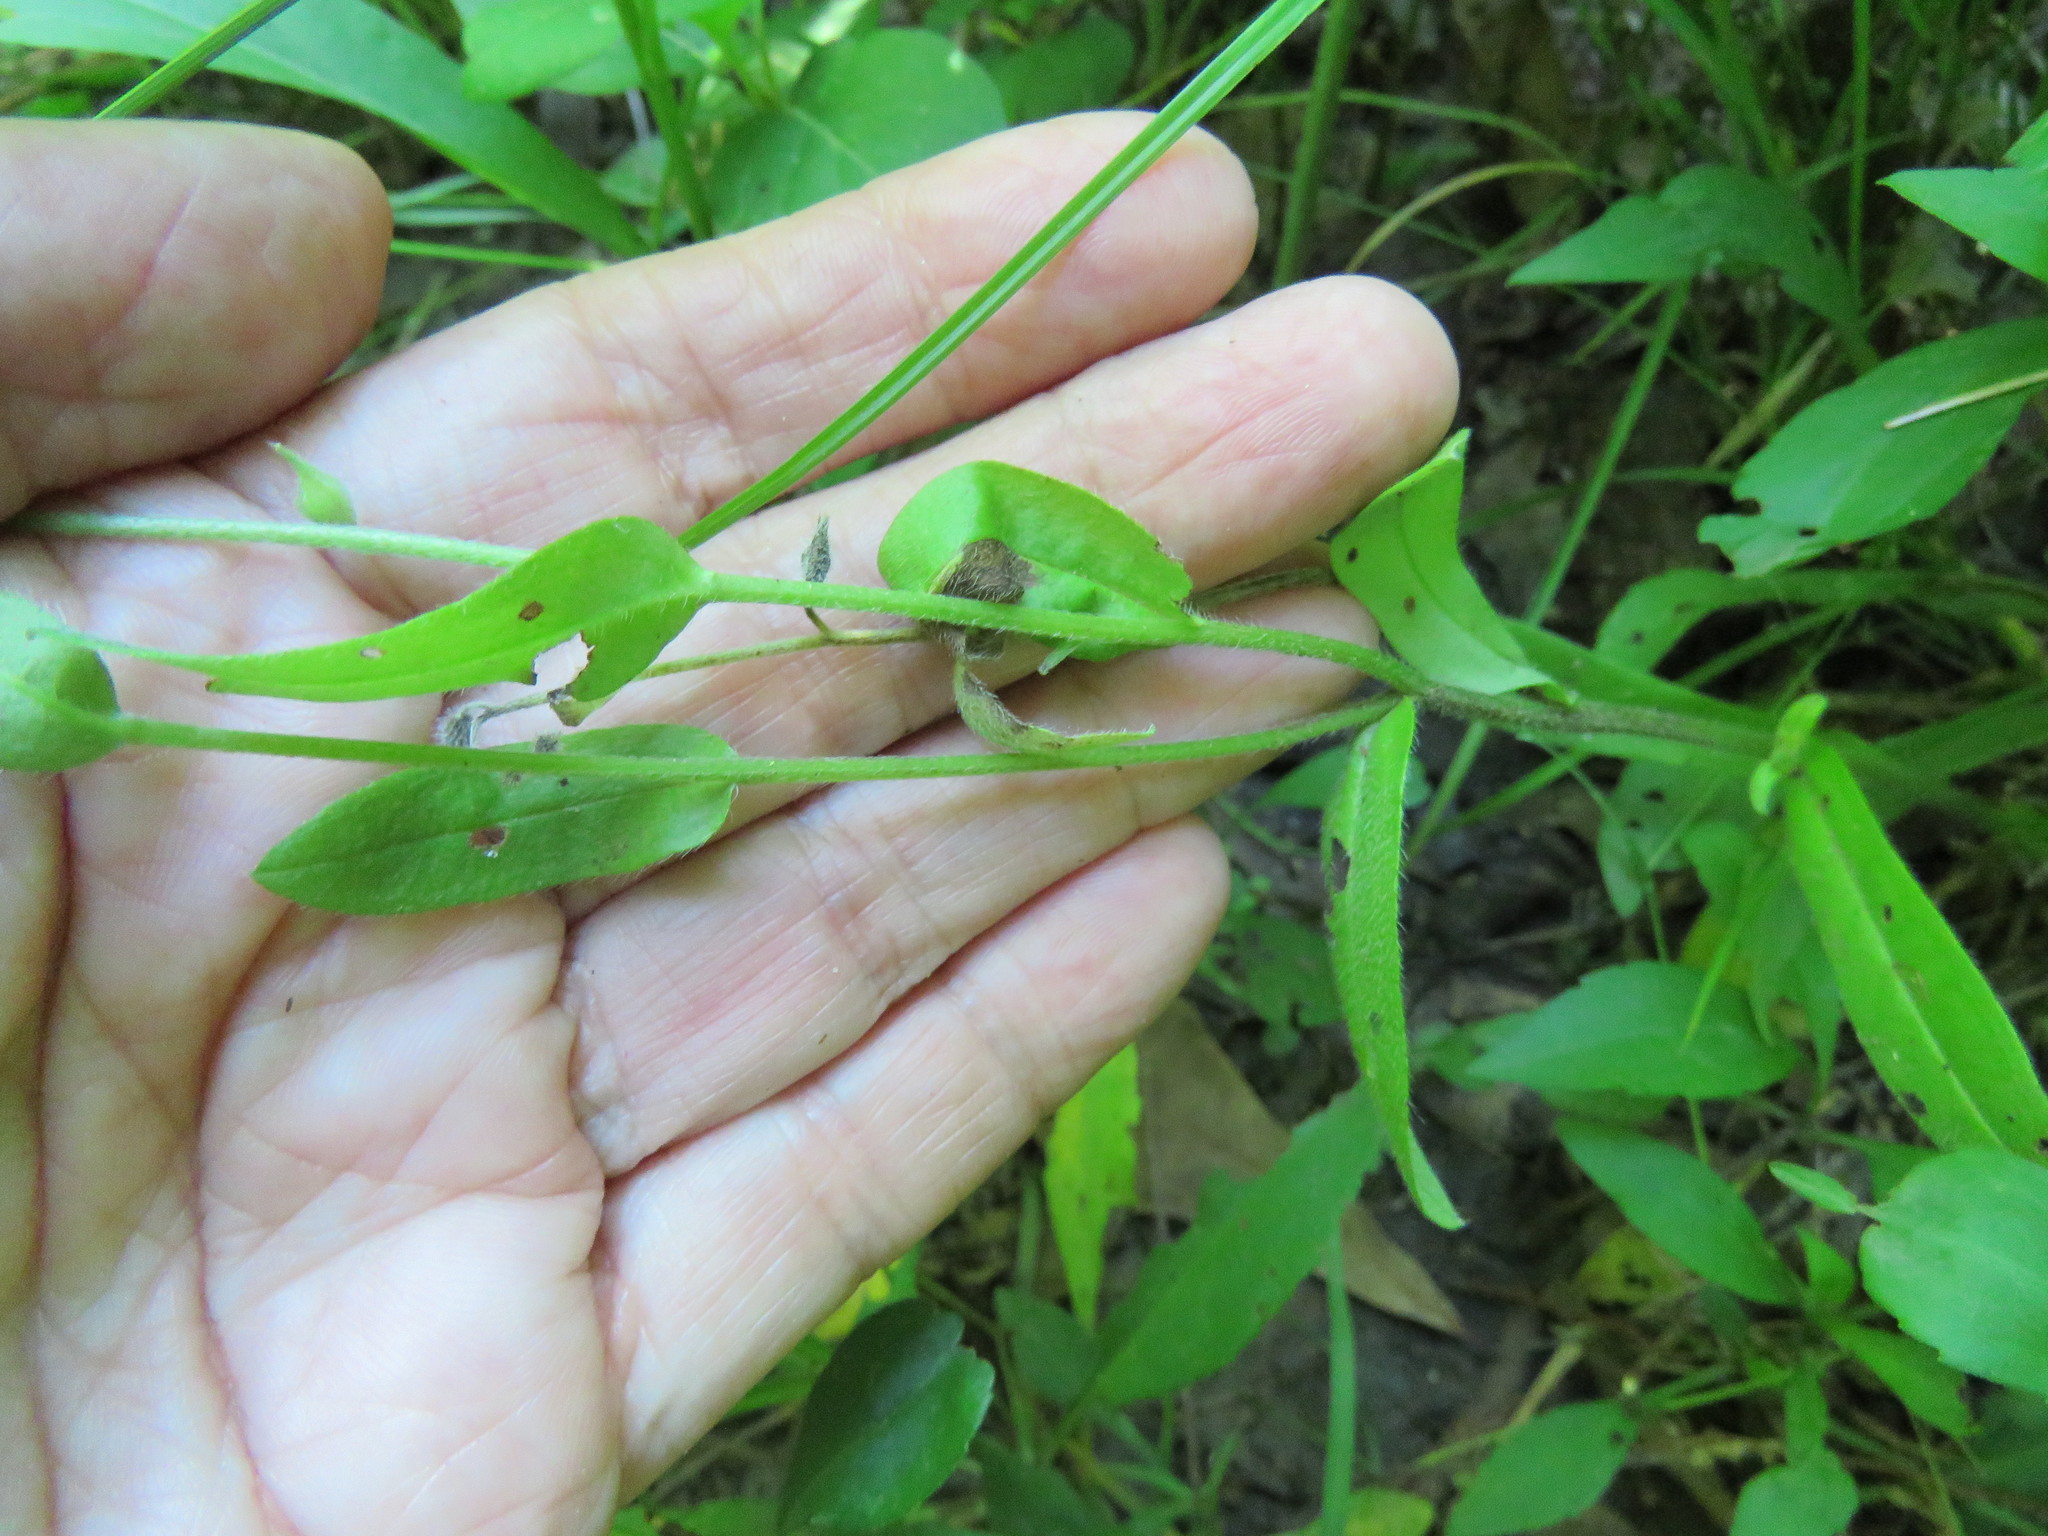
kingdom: Plantae
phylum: Tracheophyta
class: Magnoliopsida
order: Boraginales
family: Boraginaceae
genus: Myosotis
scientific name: Myosotis macrosperma
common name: Large-seed forget-me-not
